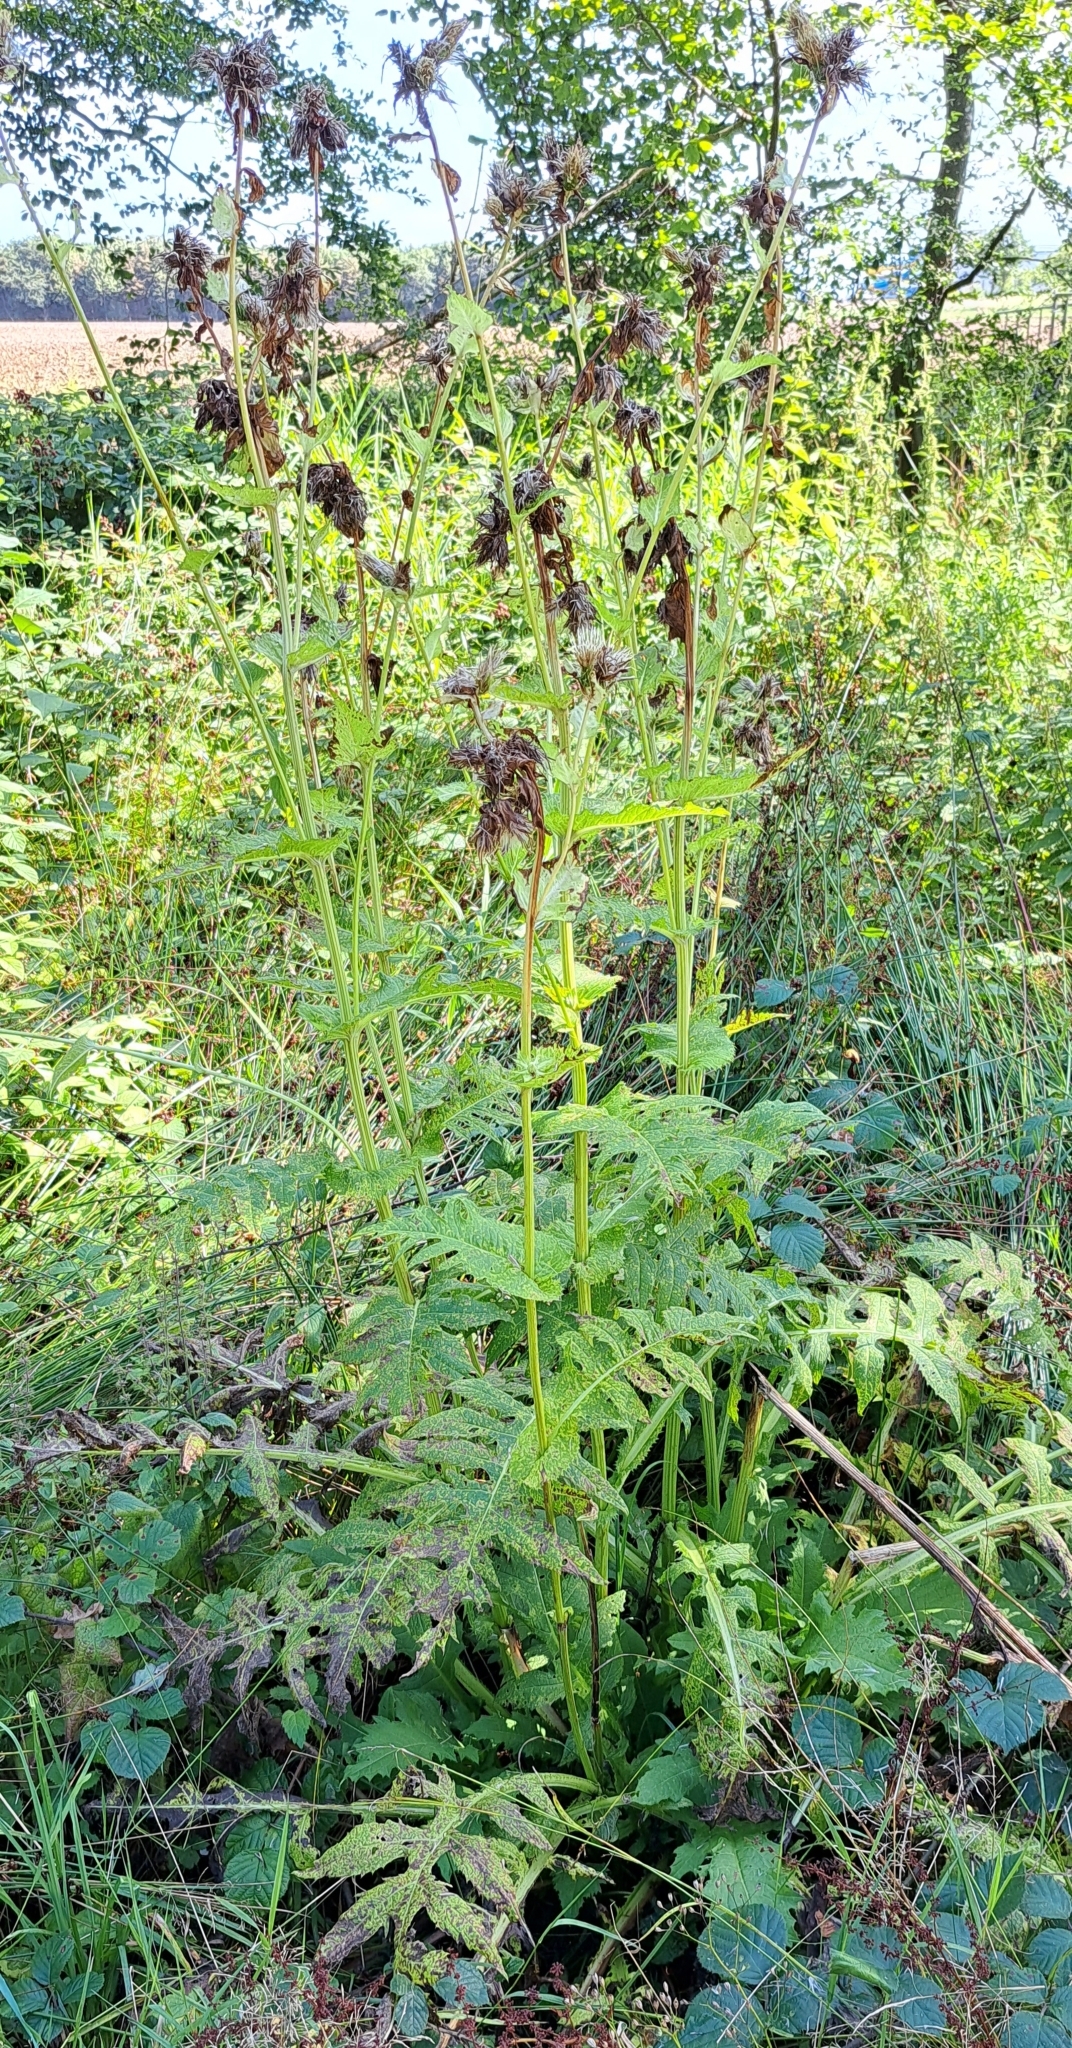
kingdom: Plantae
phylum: Tracheophyta
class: Magnoliopsida
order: Asterales
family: Asteraceae
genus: Cirsium
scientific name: Cirsium oleraceum
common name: Cabbage thistle
